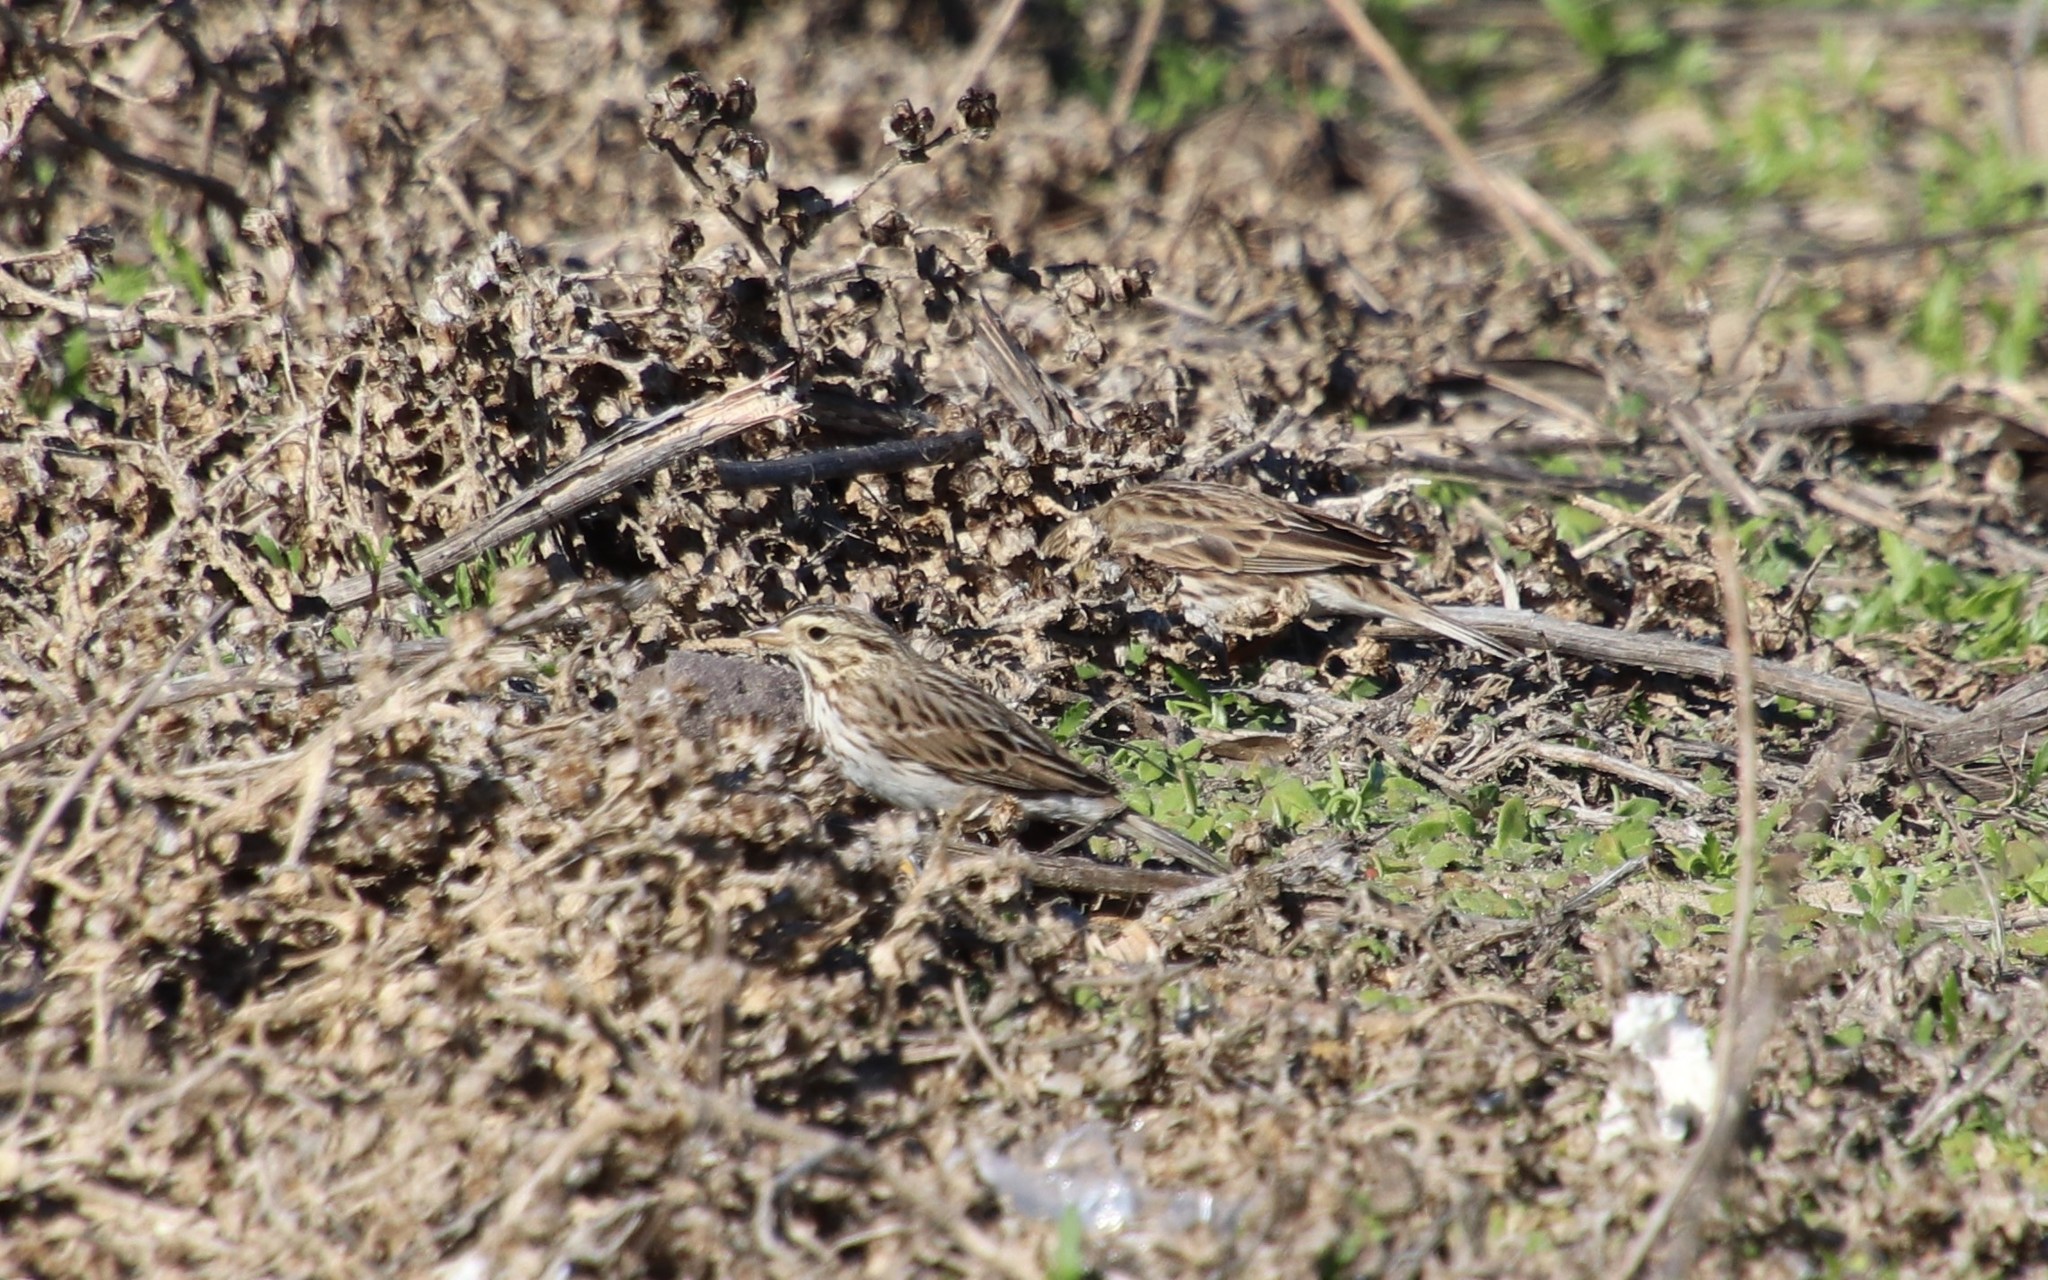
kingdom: Animalia
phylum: Chordata
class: Aves
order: Passeriformes
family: Passerellidae
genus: Passerculus
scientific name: Passerculus sandwichensis
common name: Savannah sparrow
